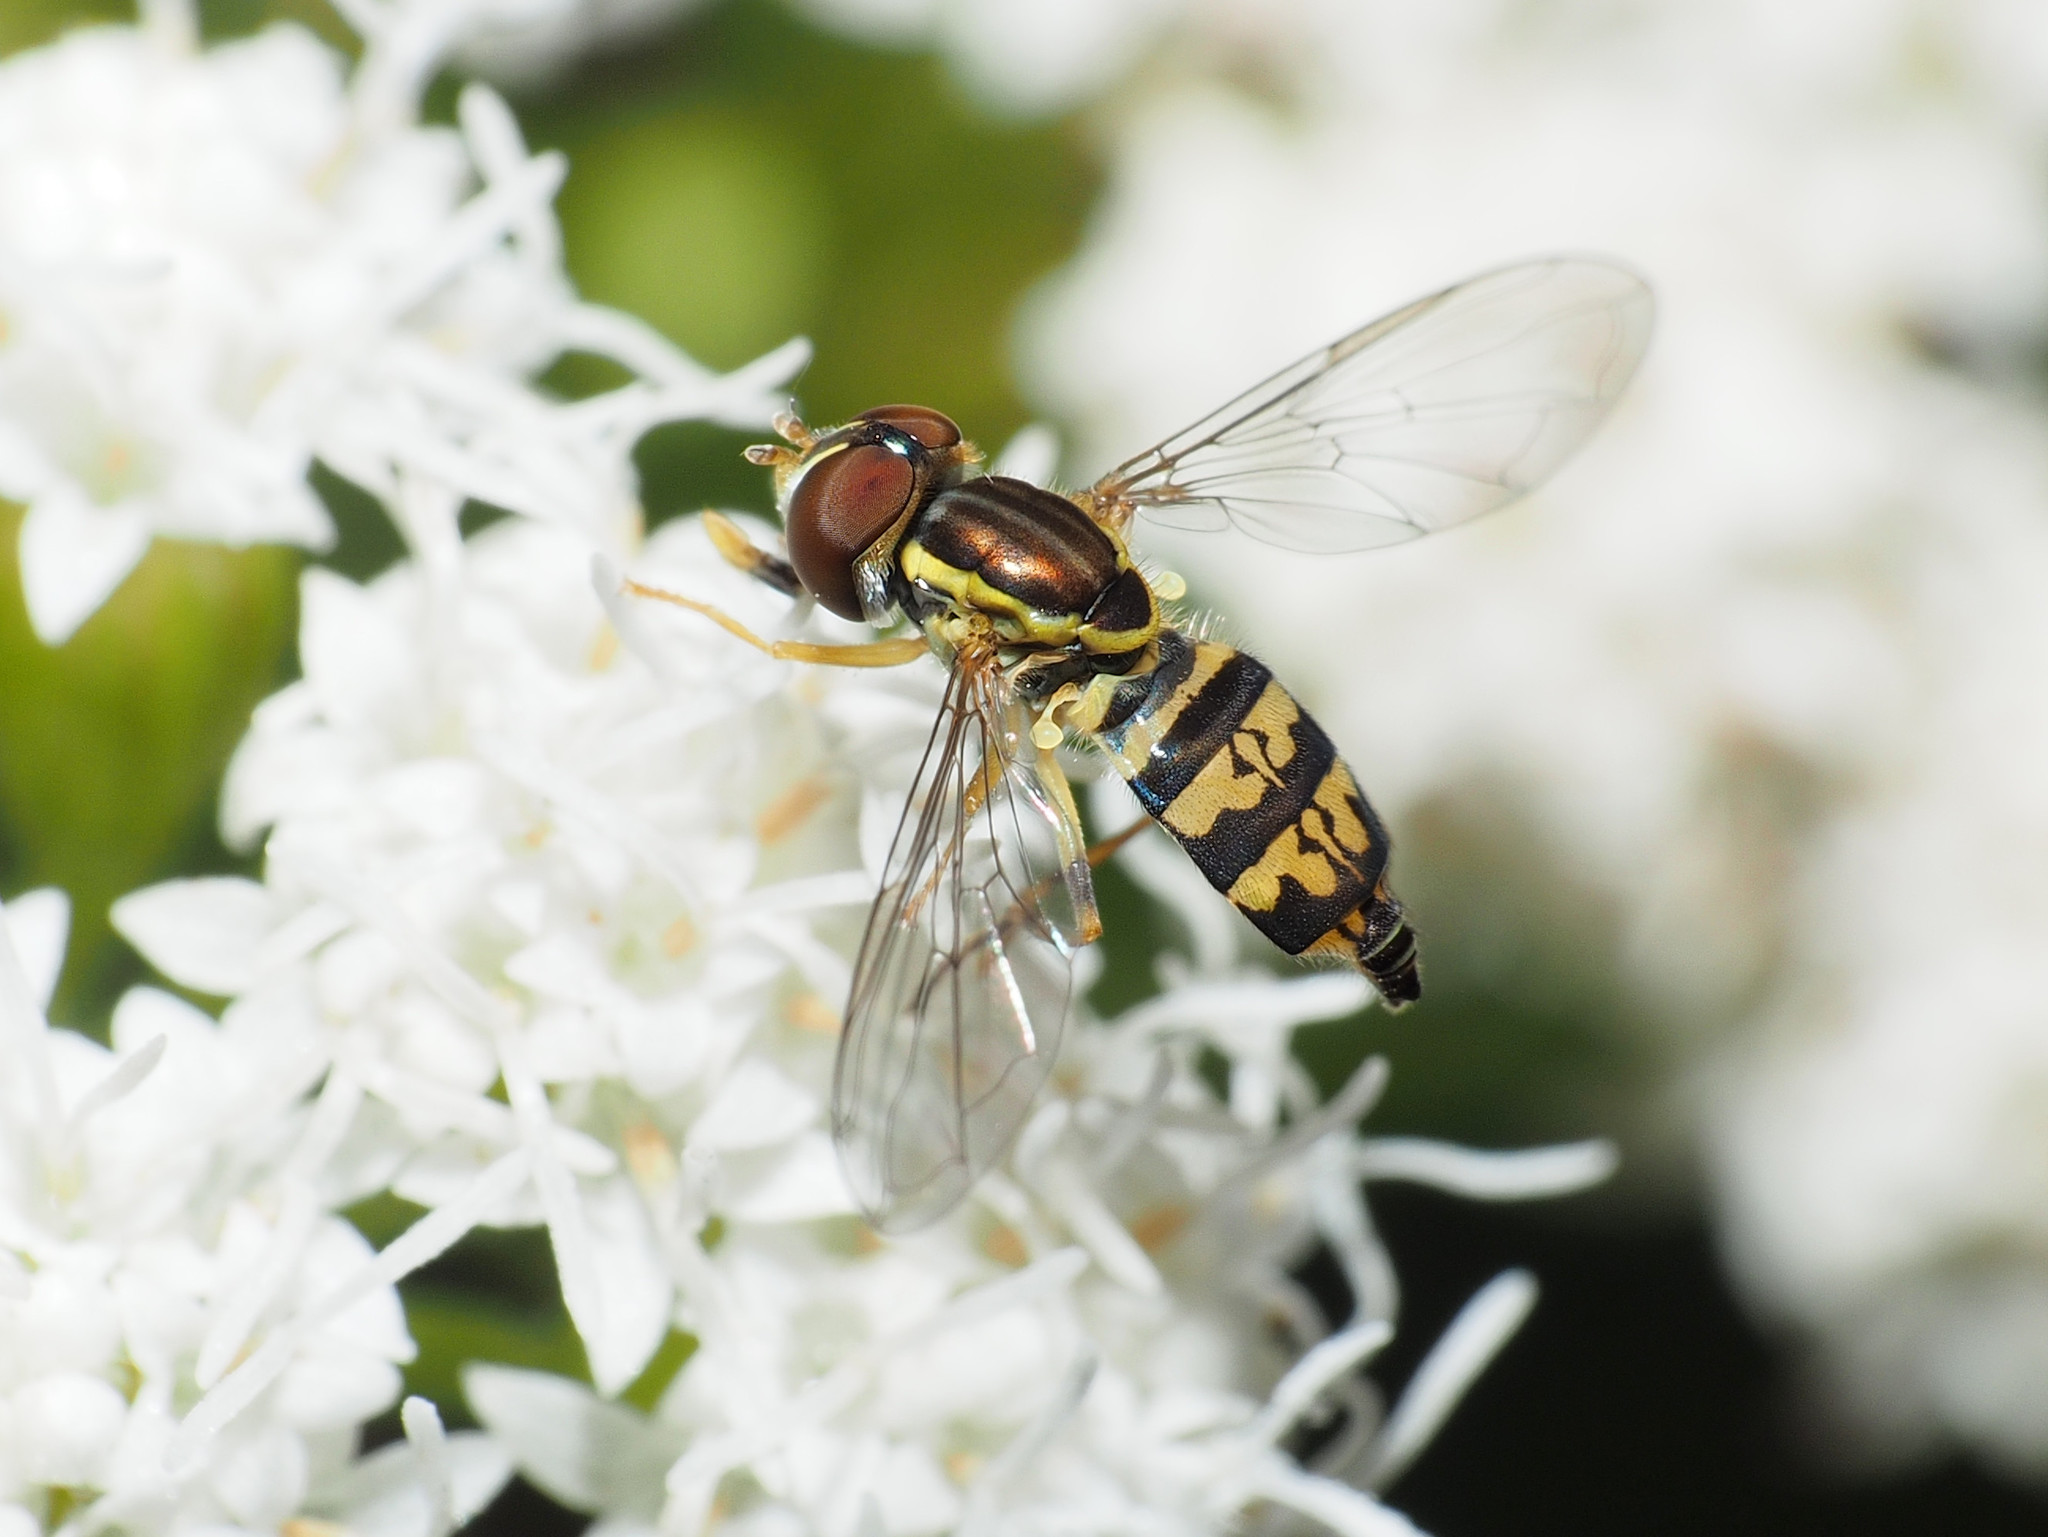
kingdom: Animalia
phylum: Arthropoda
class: Insecta
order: Diptera
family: Syrphidae
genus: Toxomerus
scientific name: Toxomerus geminatus
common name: Eastern calligrapher
